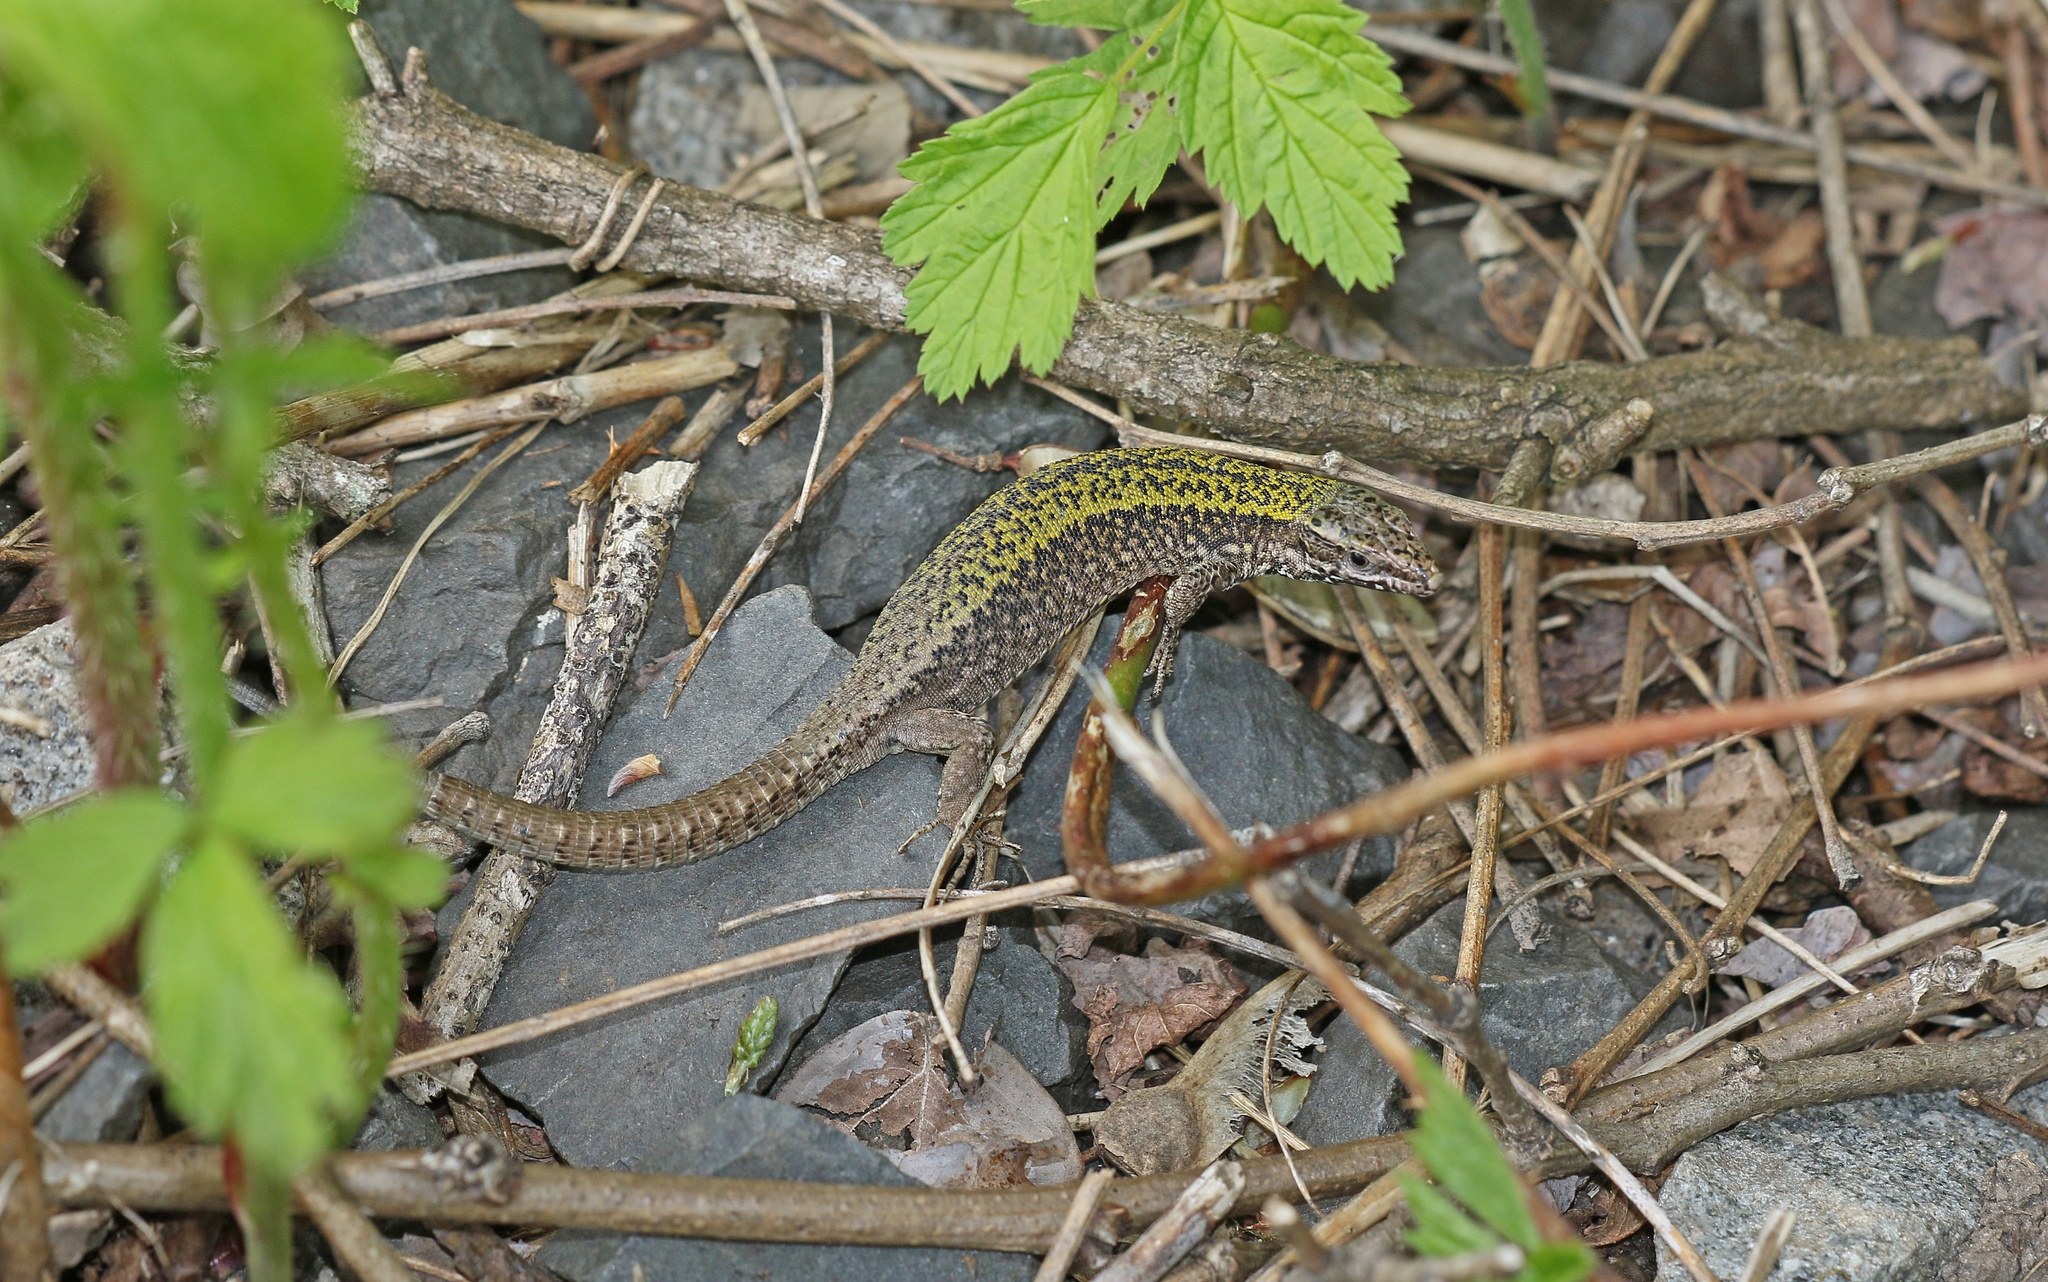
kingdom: Animalia
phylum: Chordata
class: Squamata
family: Lacertidae
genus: Podarcis
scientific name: Podarcis muralis
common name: Common wall lizard
